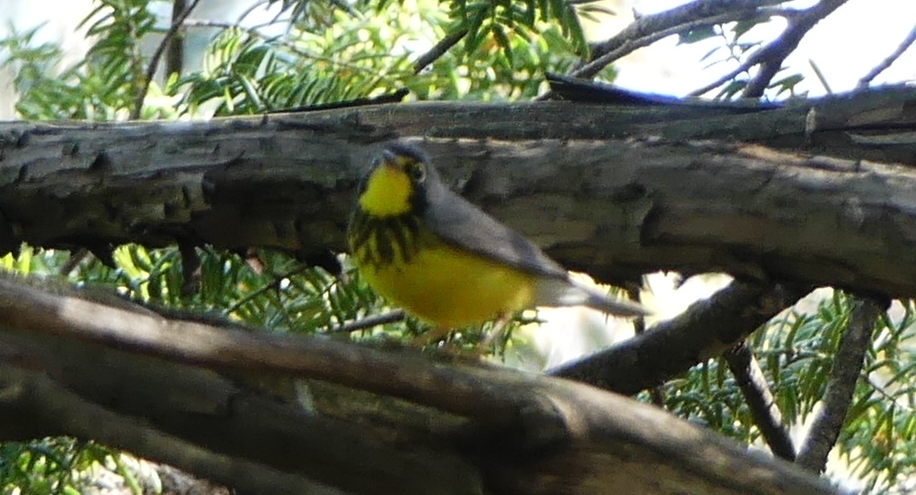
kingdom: Animalia
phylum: Chordata
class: Aves
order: Passeriformes
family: Parulidae
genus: Cardellina
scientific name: Cardellina canadensis
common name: Canada warbler
